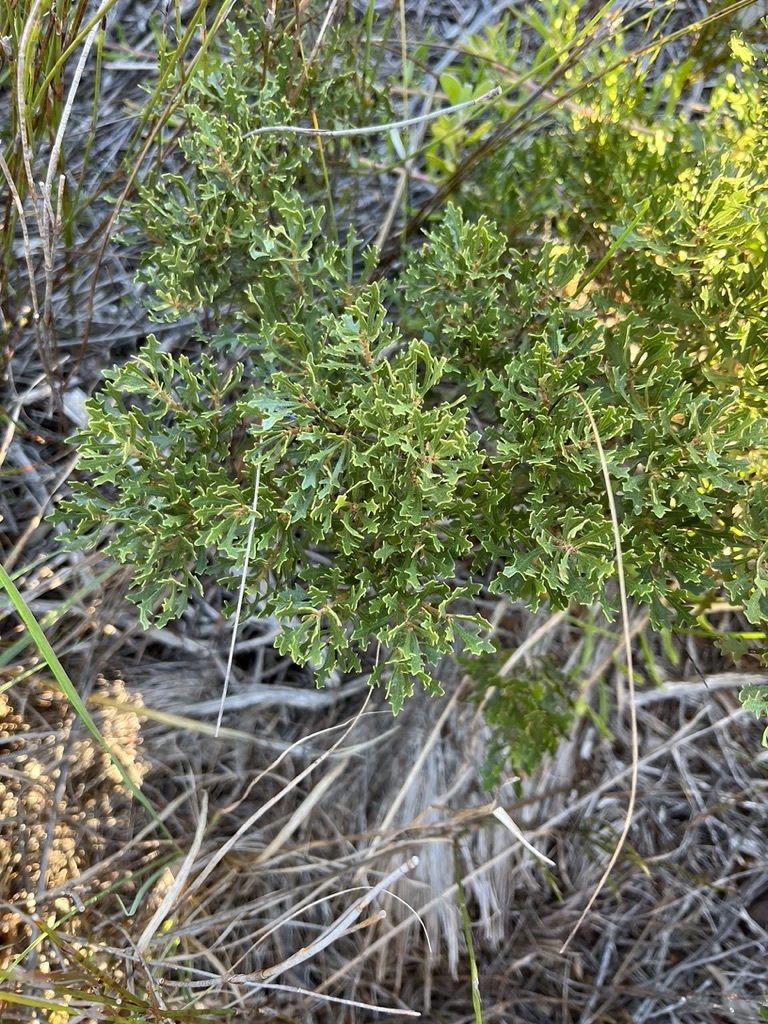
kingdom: Plantae
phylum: Tracheophyta
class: Magnoliopsida
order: Fagales
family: Myricaceae
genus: Morella
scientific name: Morella quercifolia
